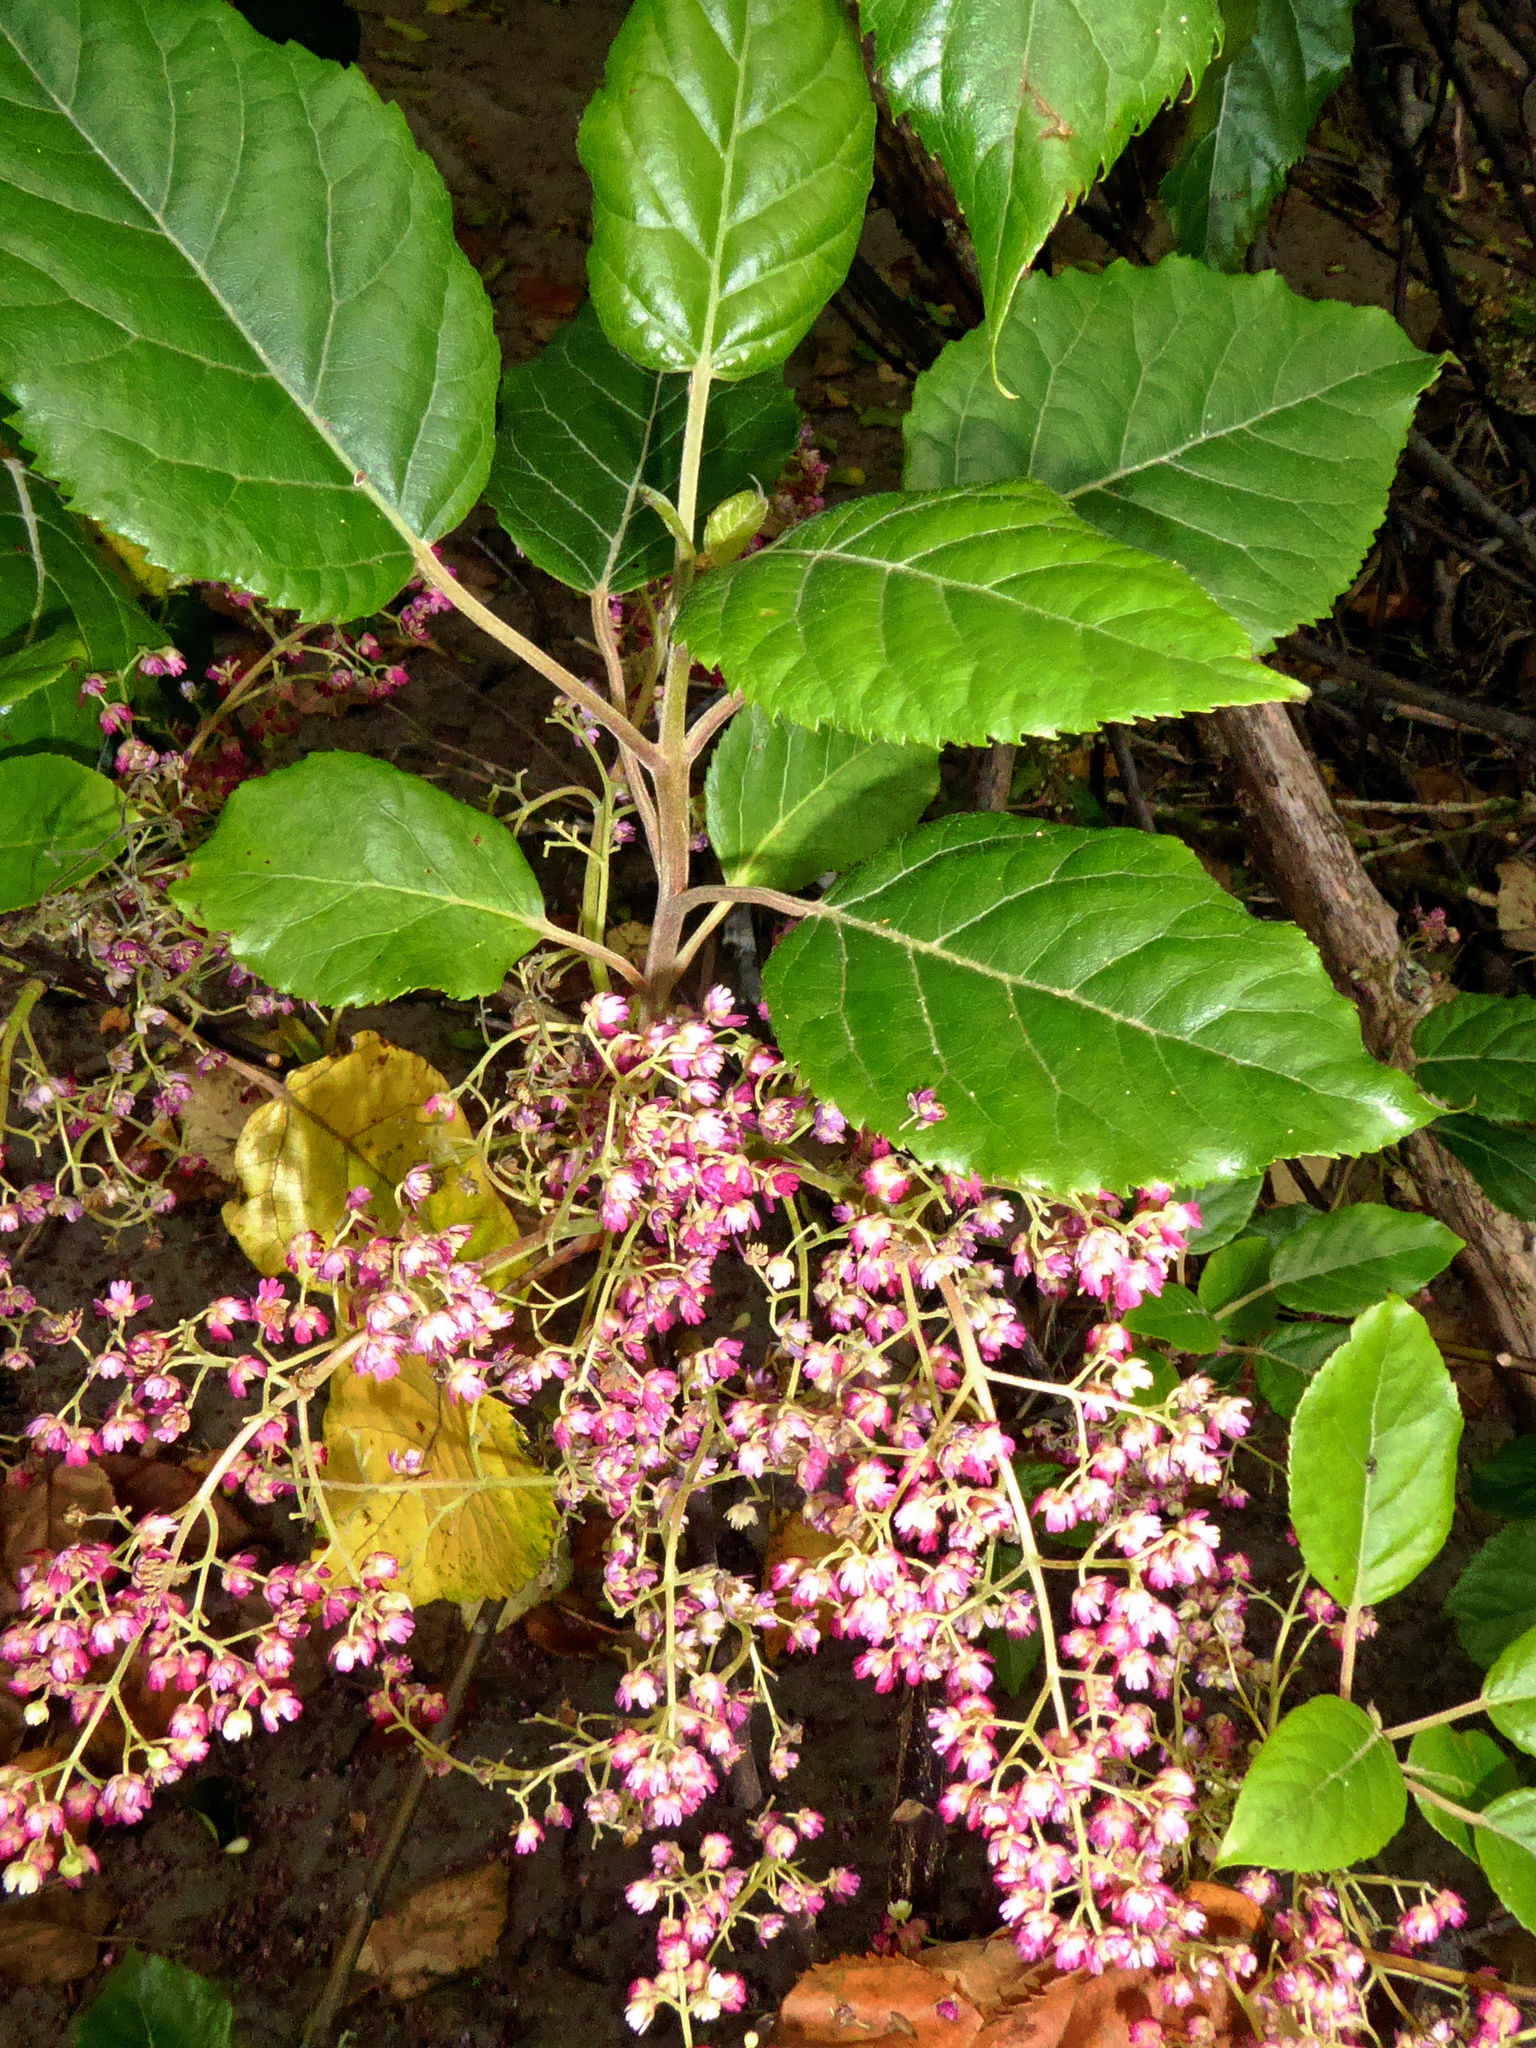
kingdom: Plantae
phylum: Tracheophyta
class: Magnoliopsida
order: Oxalidales
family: Elaeocarpaceae
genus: Aristotelia
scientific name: Aristotelia serrata
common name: New zealand wineberry
